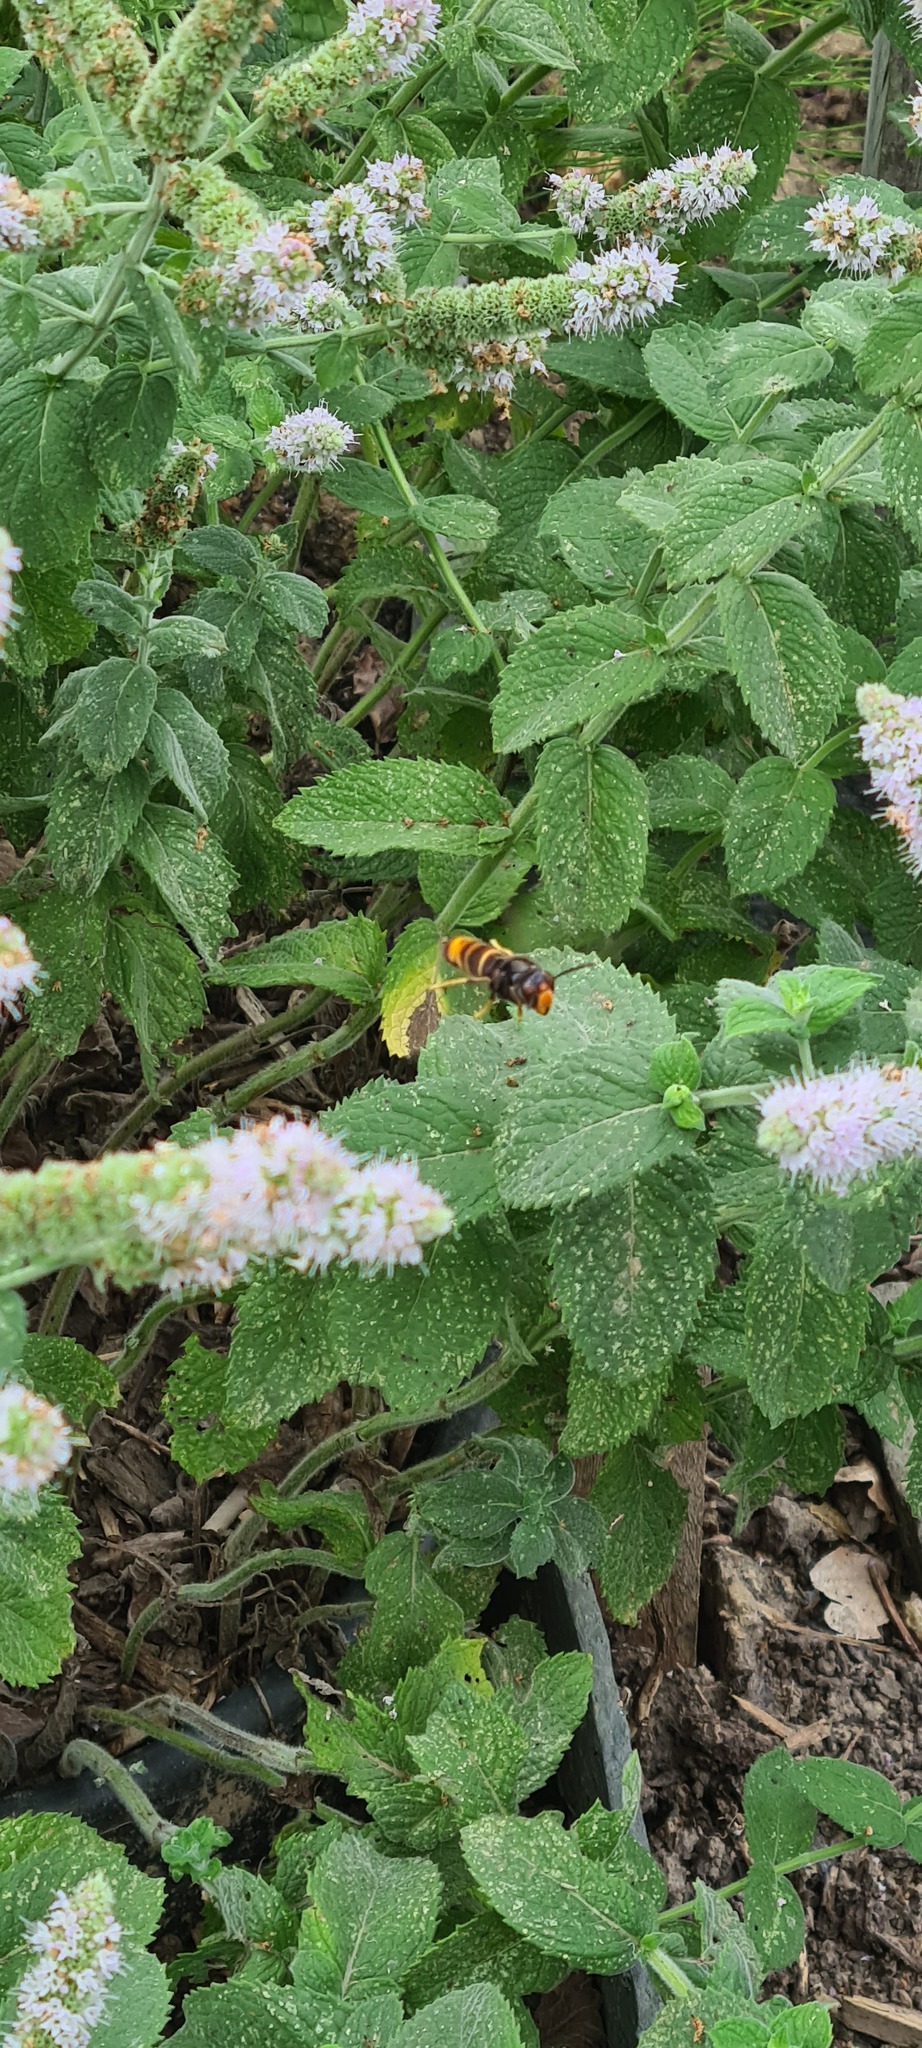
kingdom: Animalia
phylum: Arthropoda
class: Insecta
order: Hymenoptera
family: Vespidae
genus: Vespa
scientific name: Vespa velutina
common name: Asian hornet
